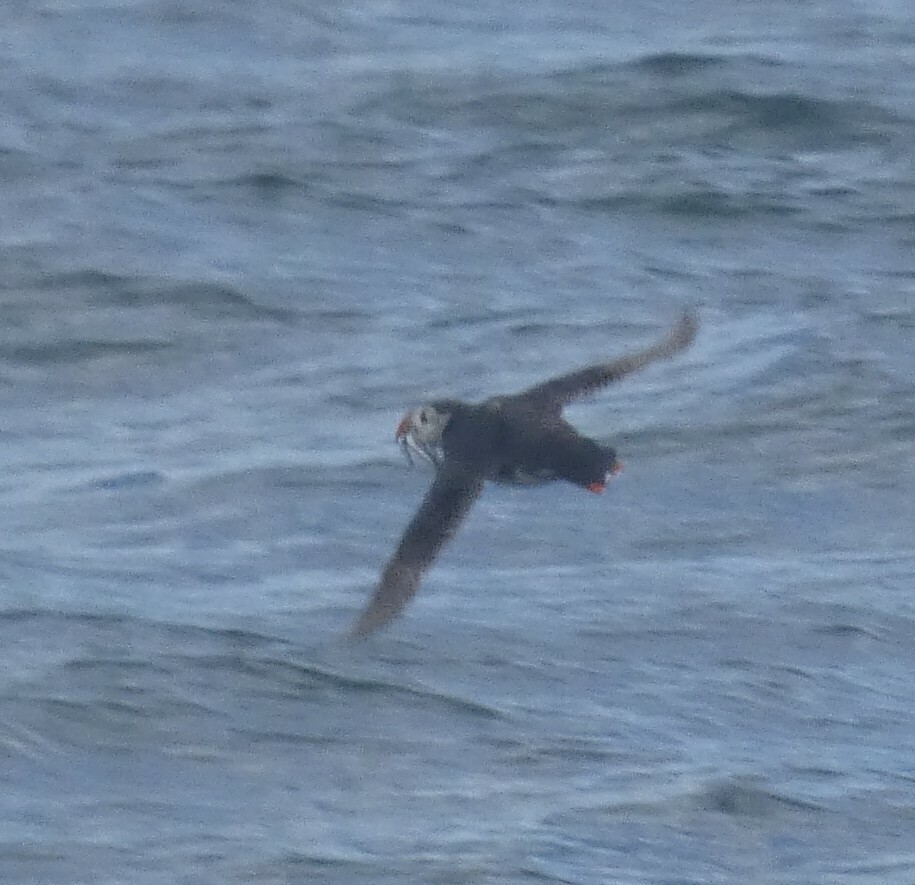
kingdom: Animalia
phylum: Chordata
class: Aves
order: Charadriiformes
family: Alcidae
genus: Fratercula
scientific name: Fratercula arctica
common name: Atlantic puffin
